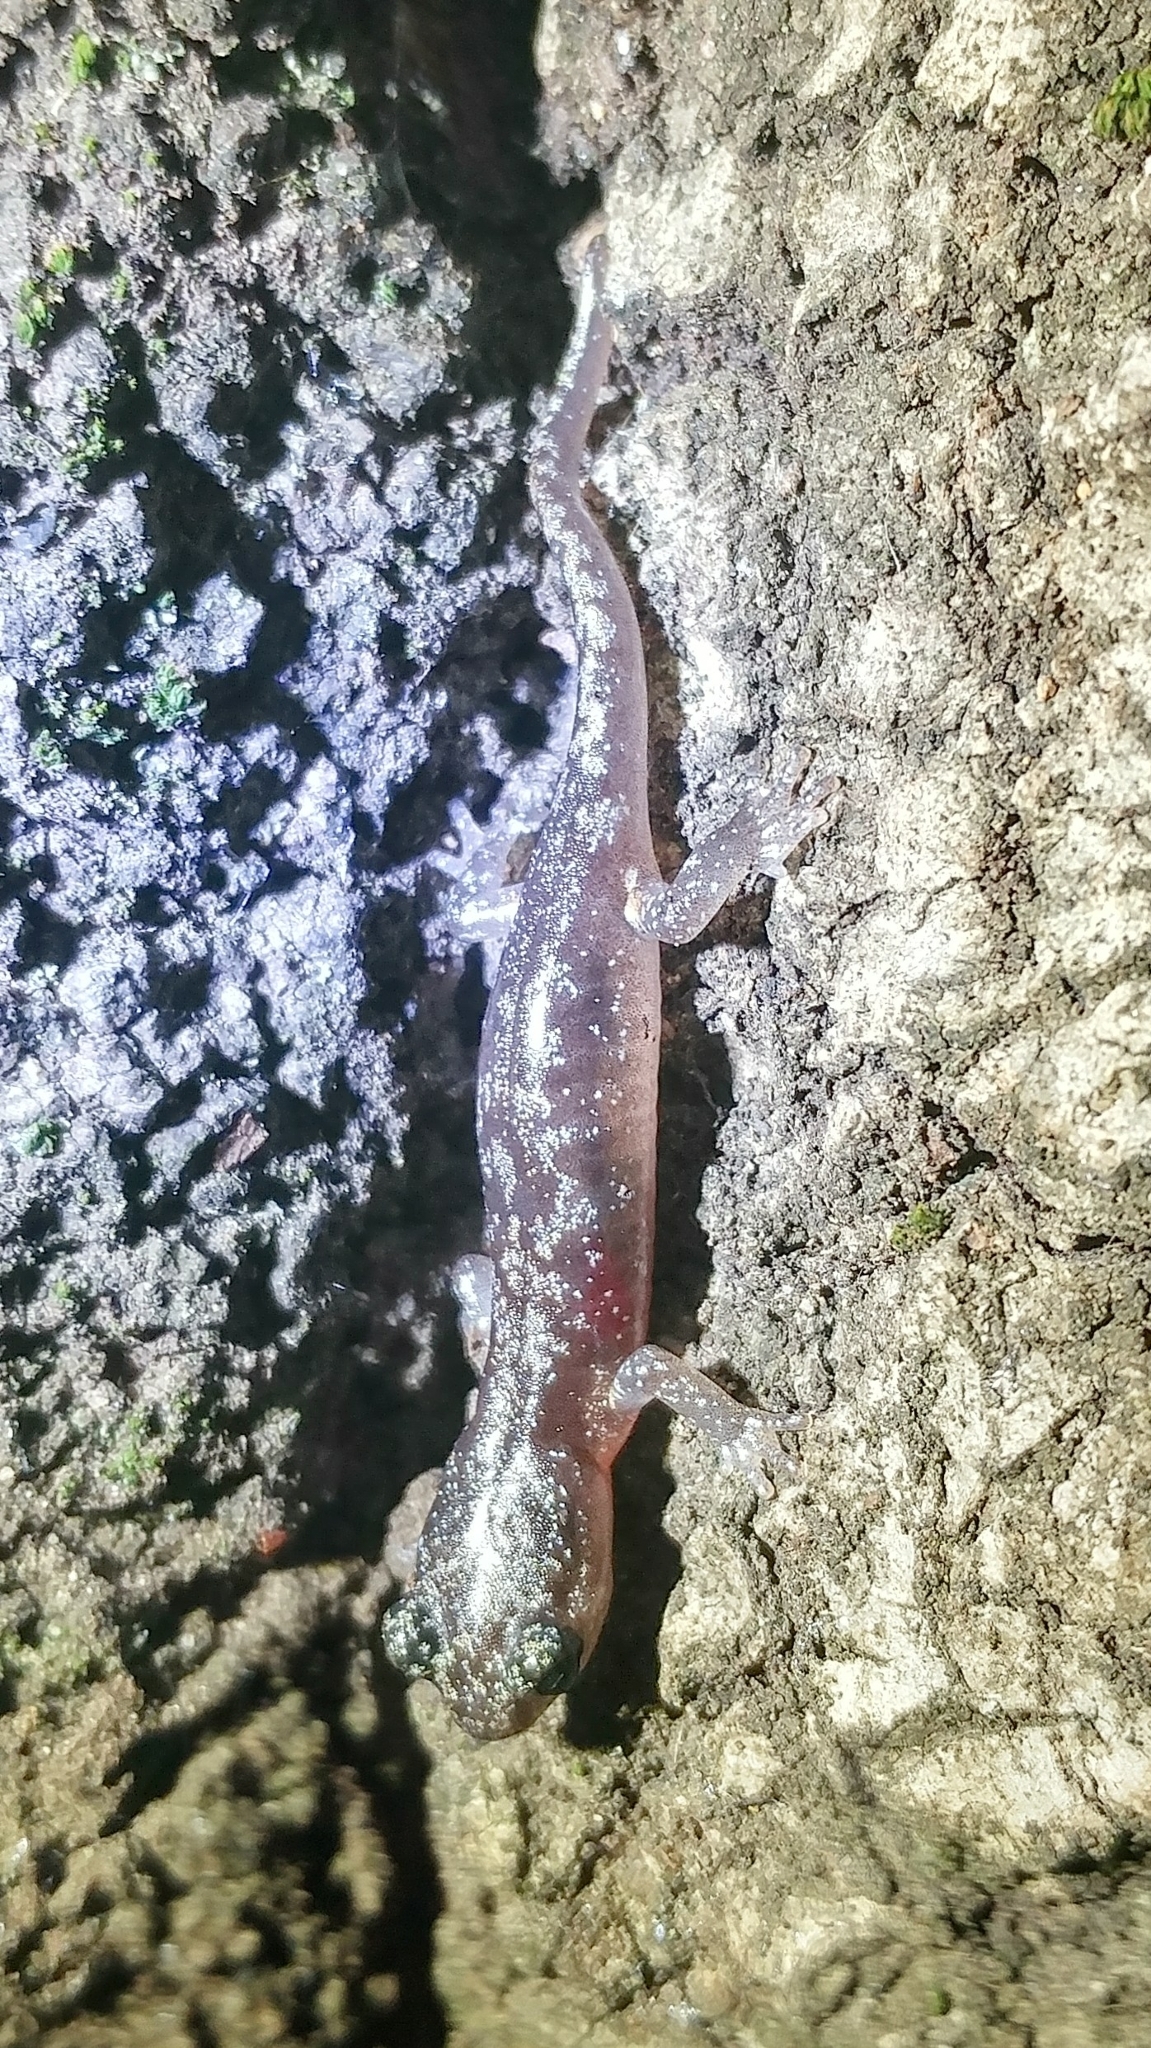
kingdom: Animalia
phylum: Chordata
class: Amphibia
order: Caudata
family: Plethodontidae
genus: Aneides
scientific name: Aneides lugubris
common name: Arboreal salamander
